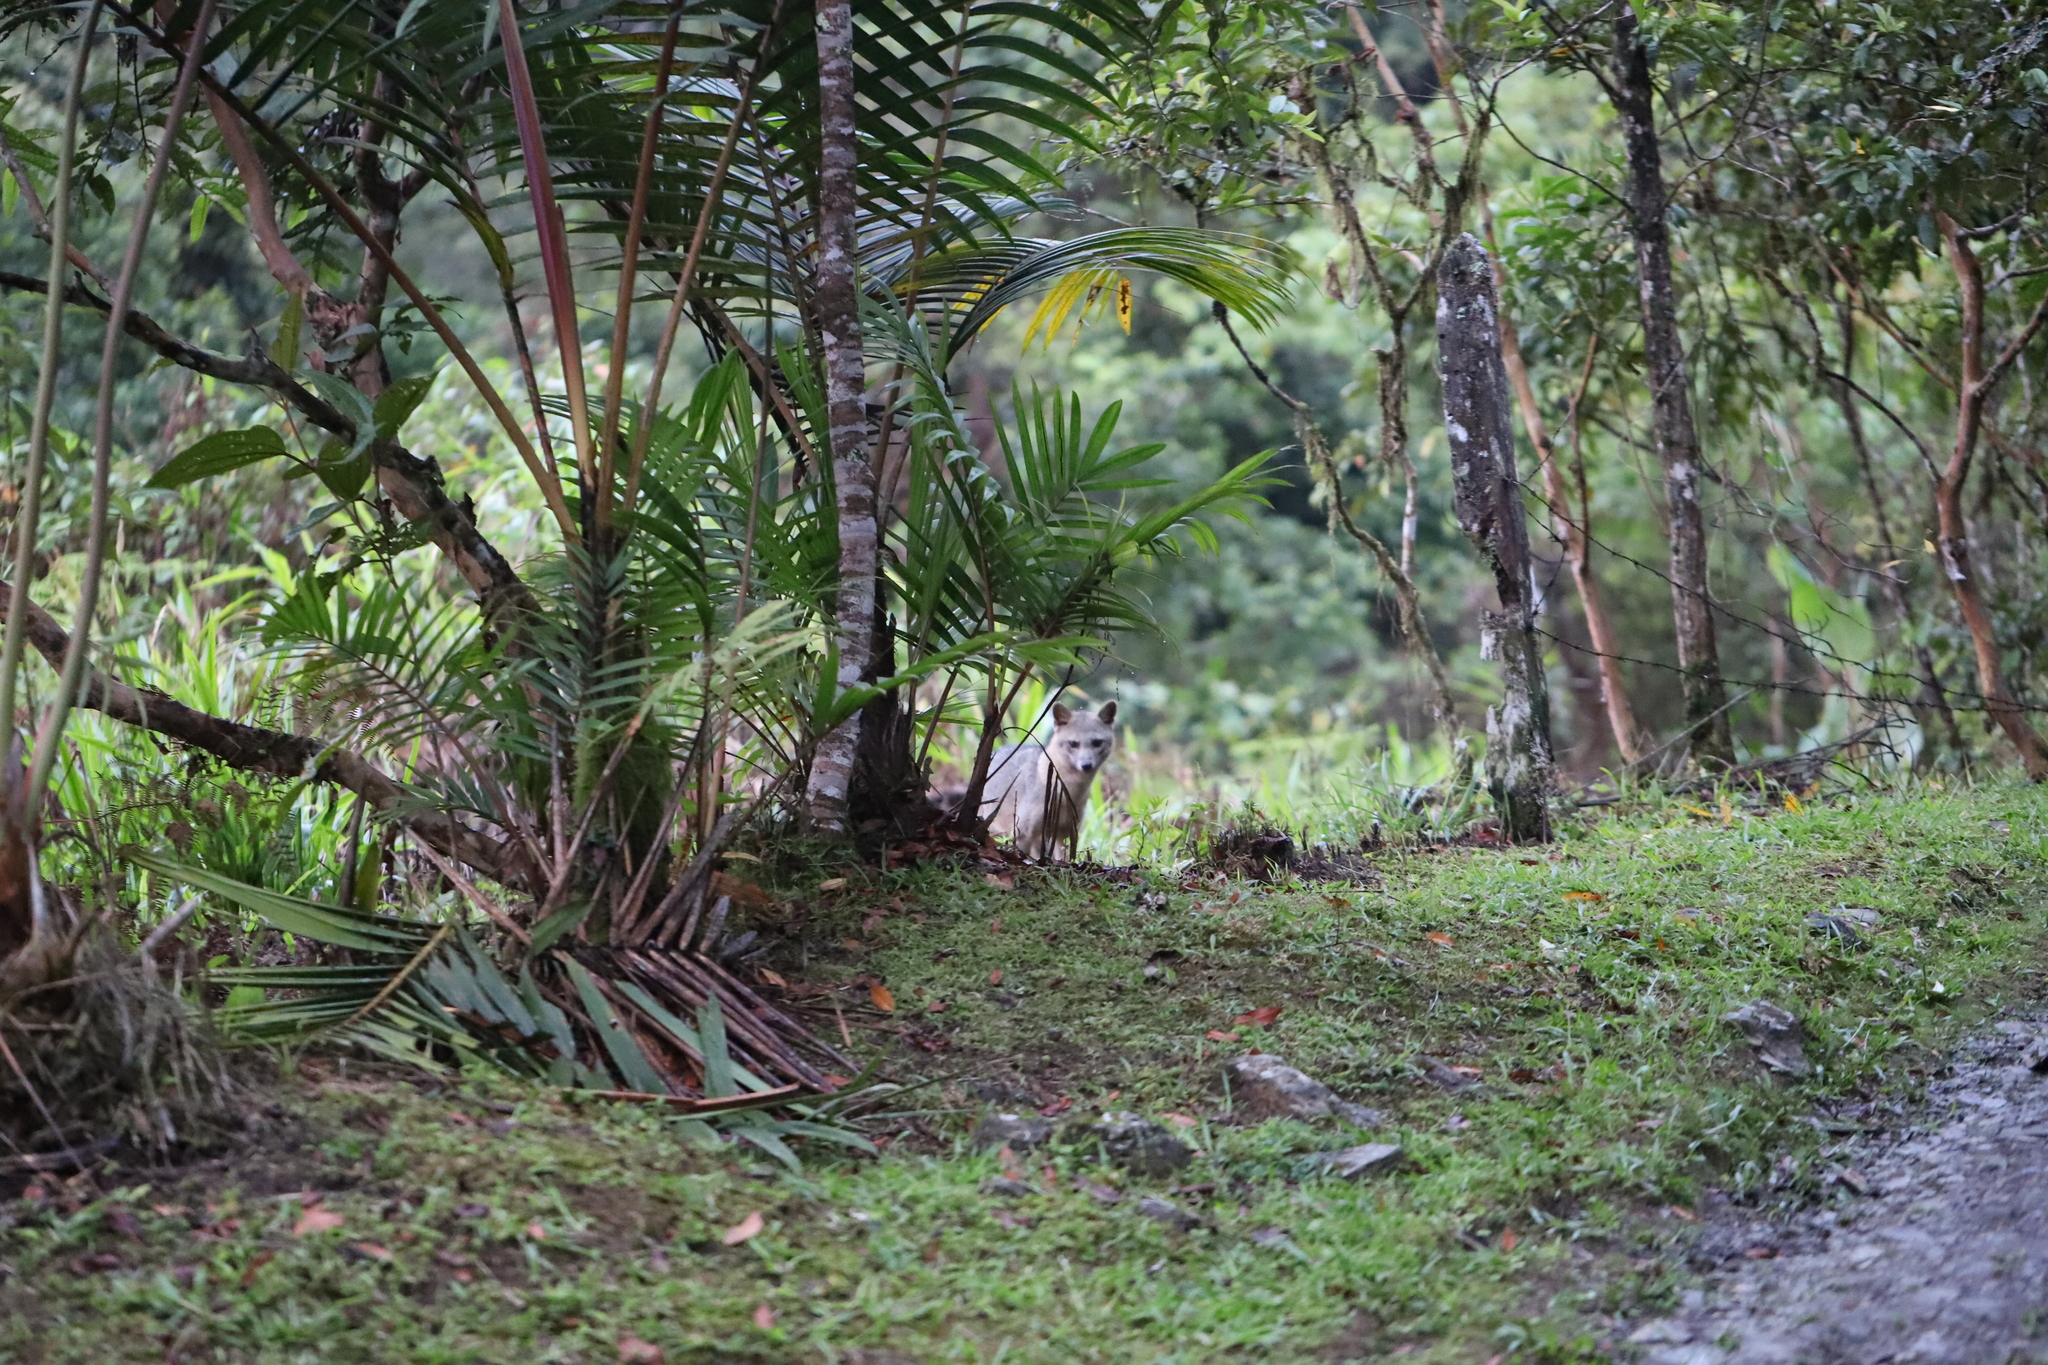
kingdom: Animalia
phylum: Chordata
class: Mammalia
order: Carnivora
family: Canidae
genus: Cerdocyon
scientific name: Cerdocyon thous
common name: Crab-eating fox
